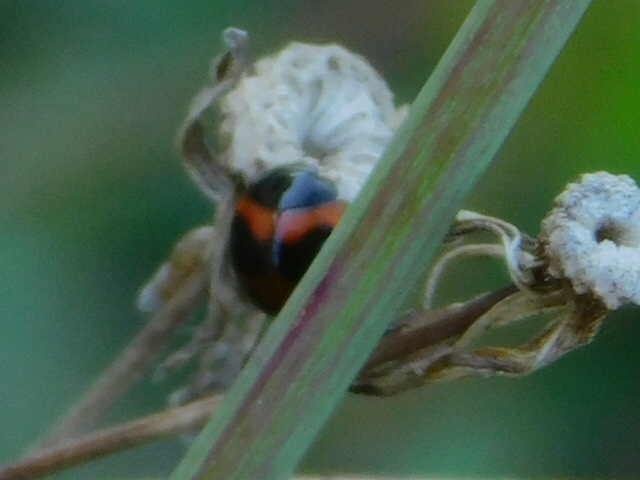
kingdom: Animalia
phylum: Arthropoda
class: Insecta
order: Coleoptera
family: Coccinellidae
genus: Exochomus
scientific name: Exochomus childreni
